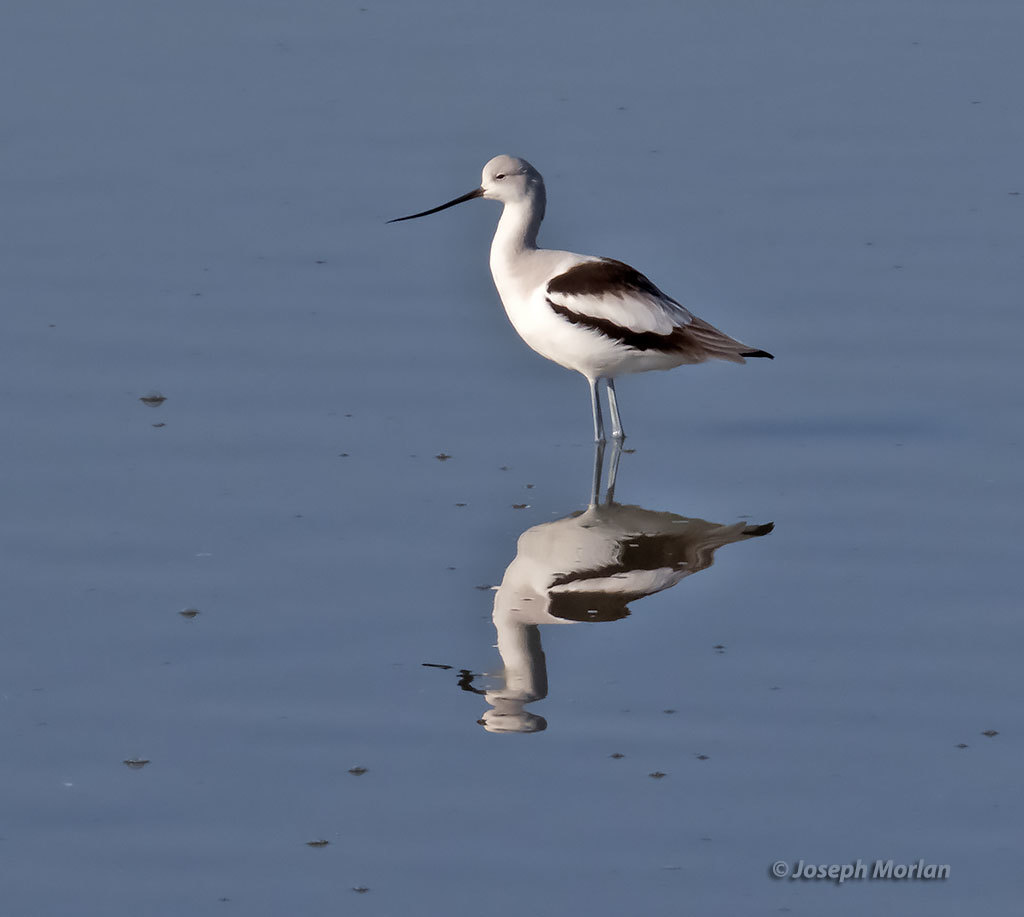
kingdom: Animalia
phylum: Chordata
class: Aves
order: Charadriiformes
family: Recurvirostridae
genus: Recurvirostra
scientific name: Recurvirostra americana
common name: American avocet
